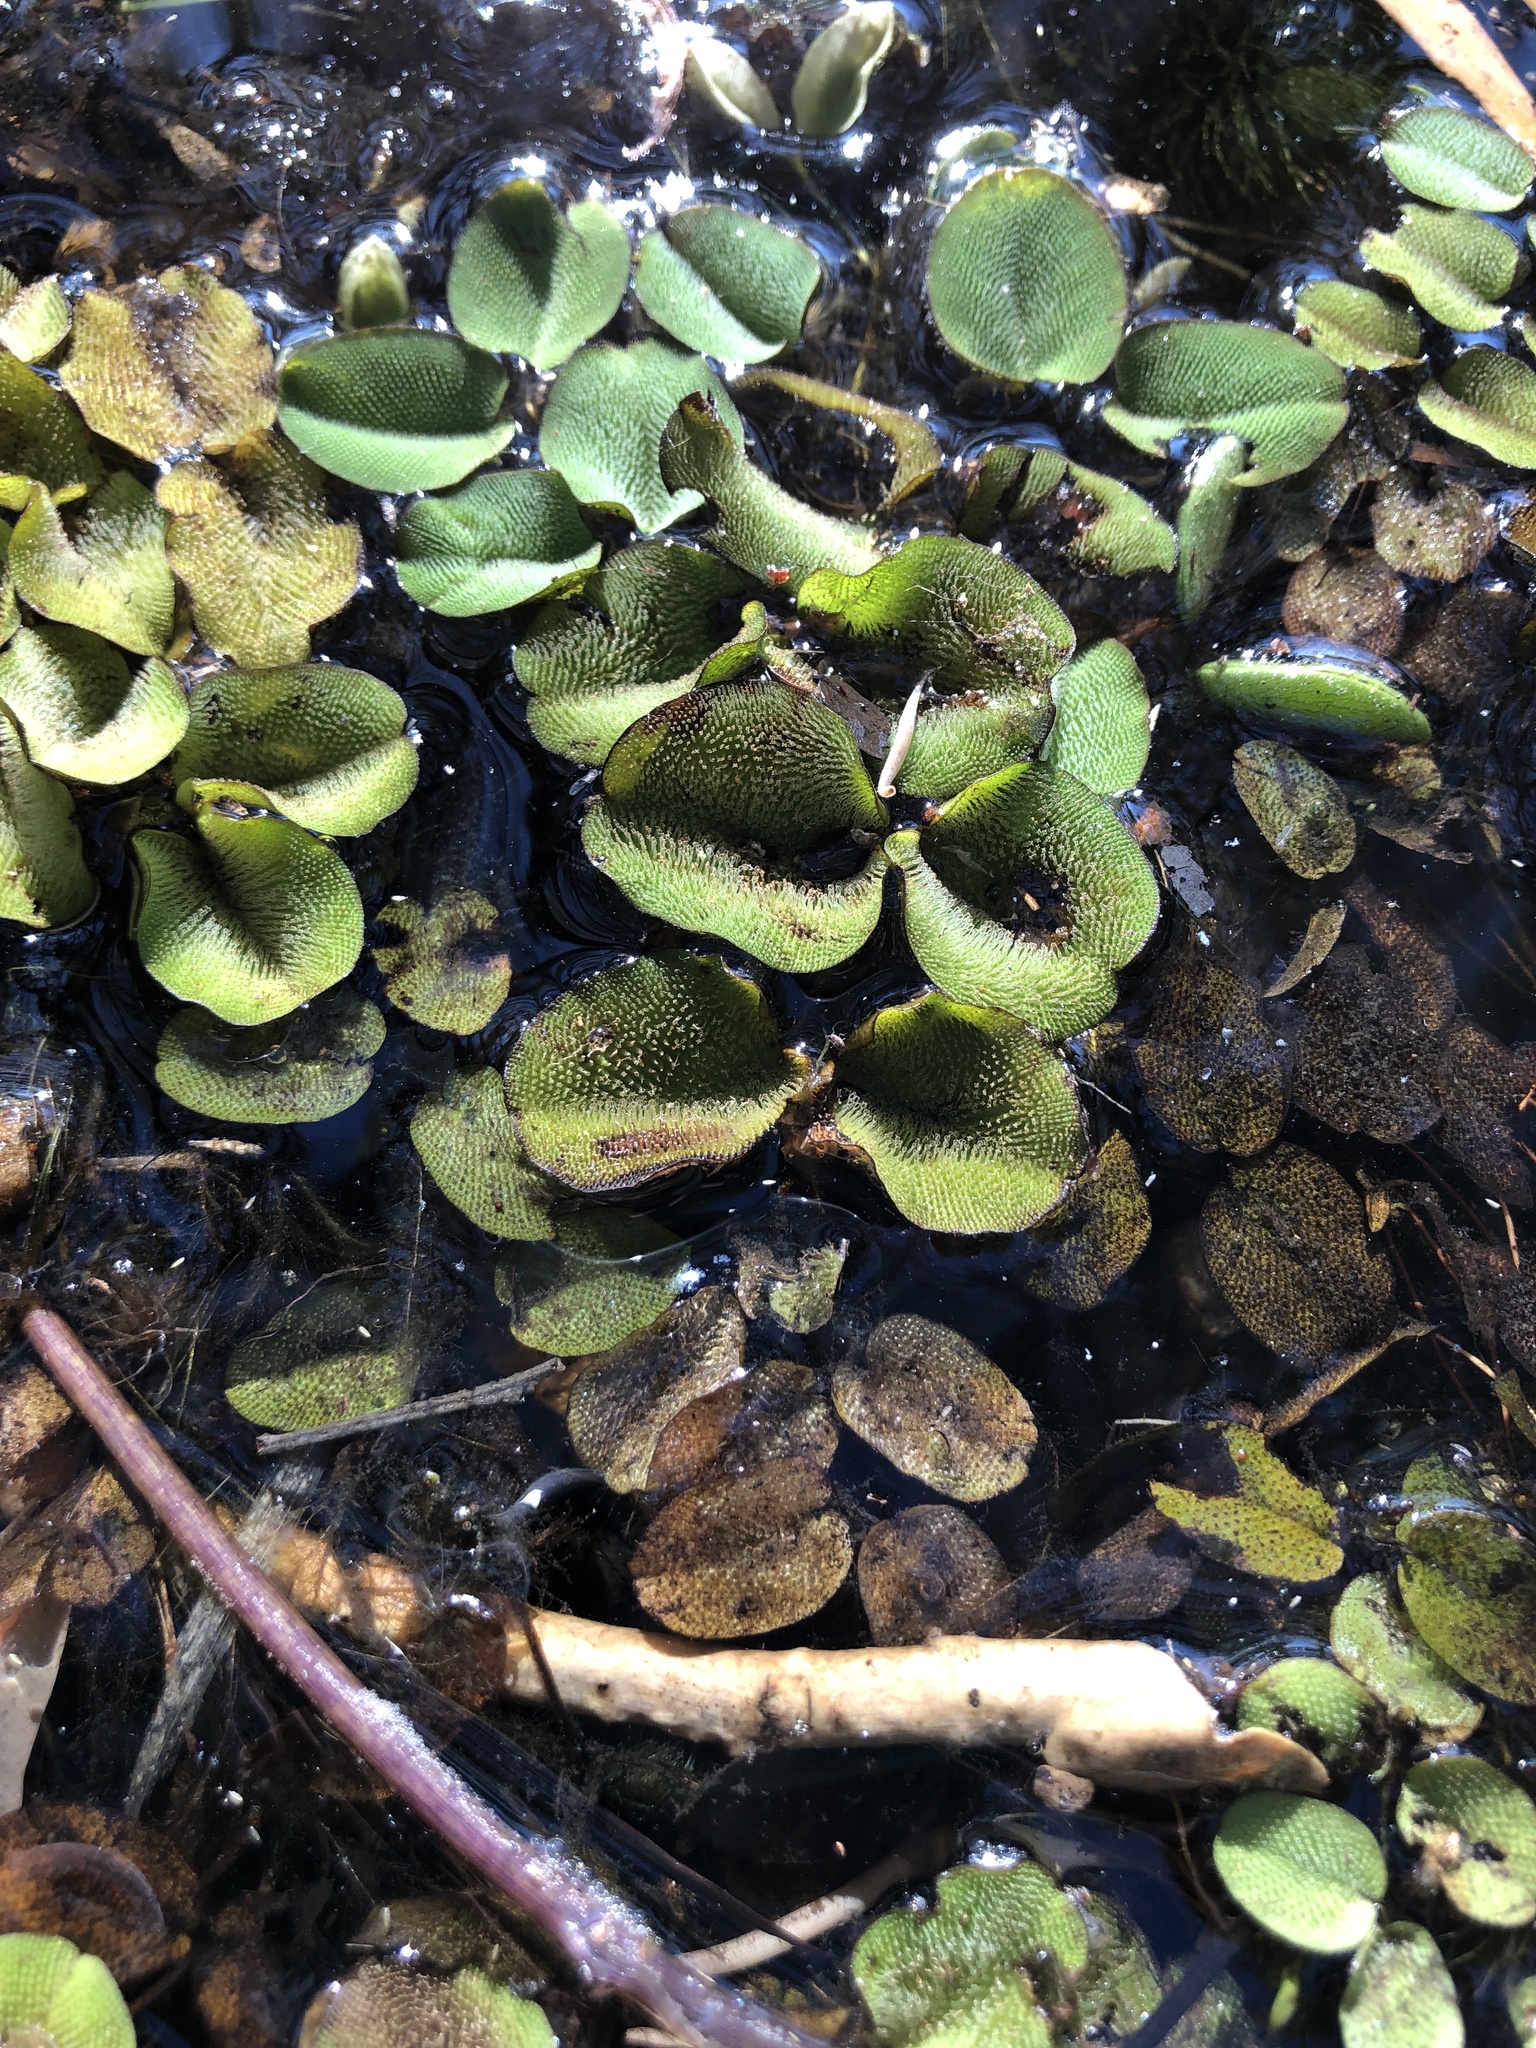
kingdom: Plantae
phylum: Tracheophyta
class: Polypodiopsida
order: Salviniales
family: Salviniaceae
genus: Salvinia
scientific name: Salvinia molesta
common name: Kariba weed
